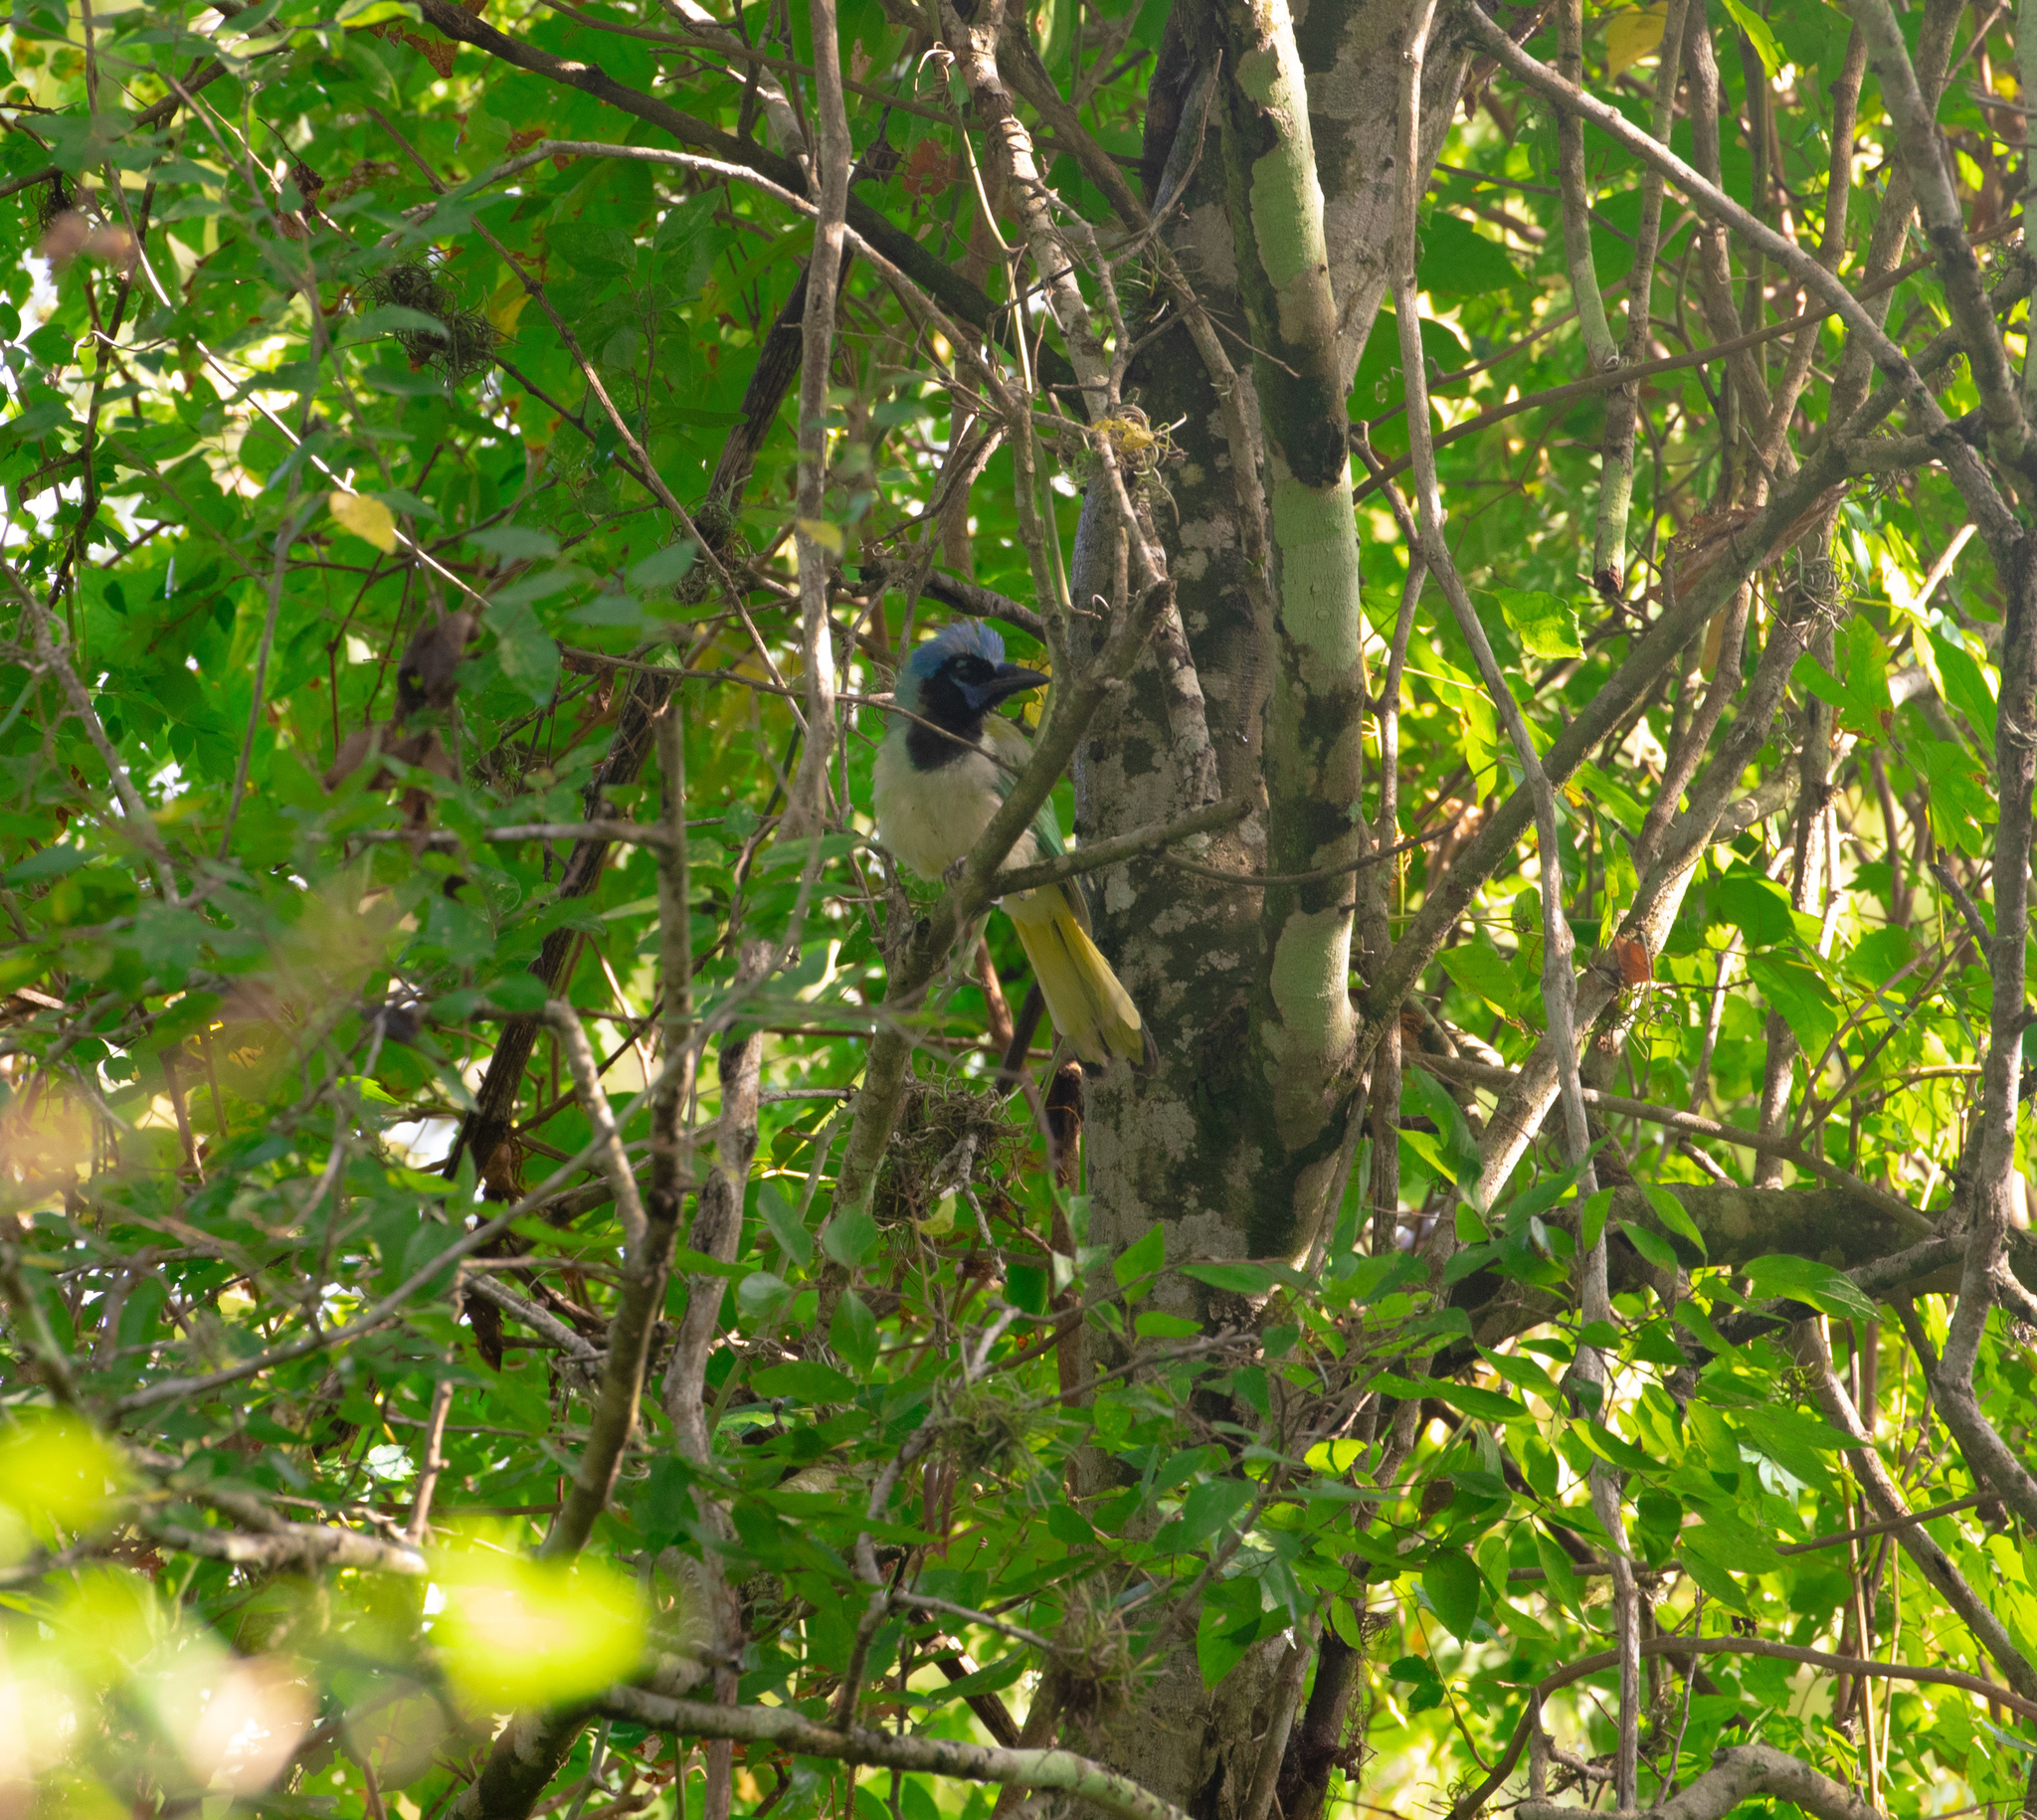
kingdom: Animalia
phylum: Chordata
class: Aves
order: Passeriformes
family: Corvidae
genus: Cyanocorax
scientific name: Cyanocorax yncas
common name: Green jay
